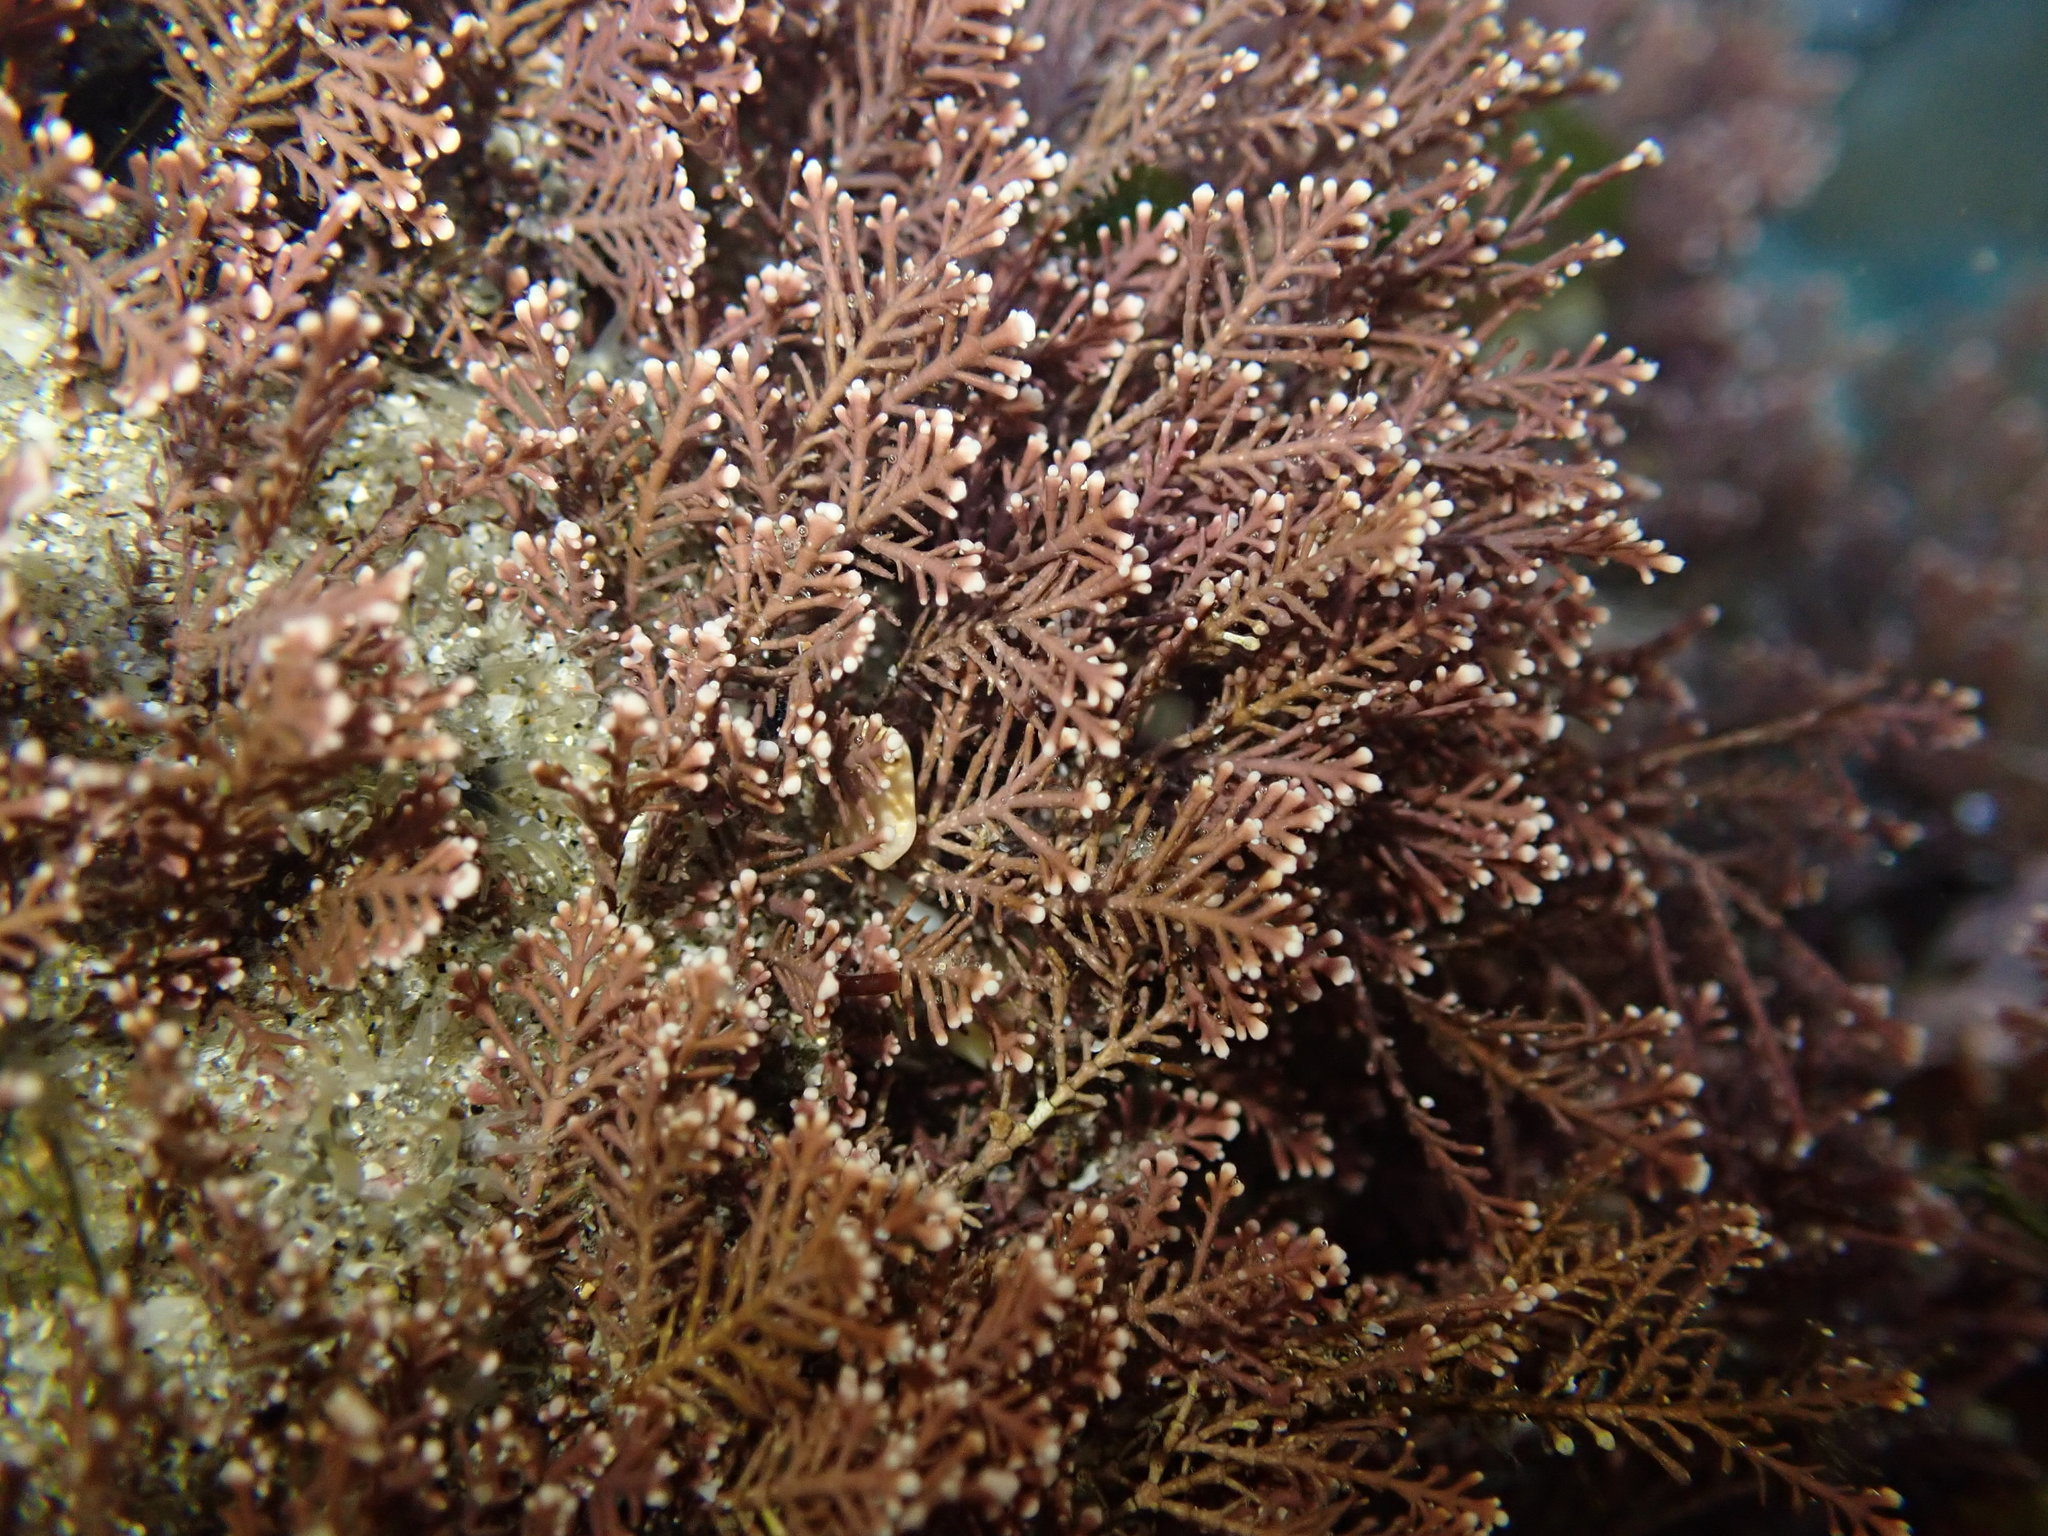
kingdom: Plantae
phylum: Rhodophyta
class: Florideophyceae
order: Corallinales
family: Corallinaceae
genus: Corallina
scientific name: Corallina officinalis
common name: Coral weed
